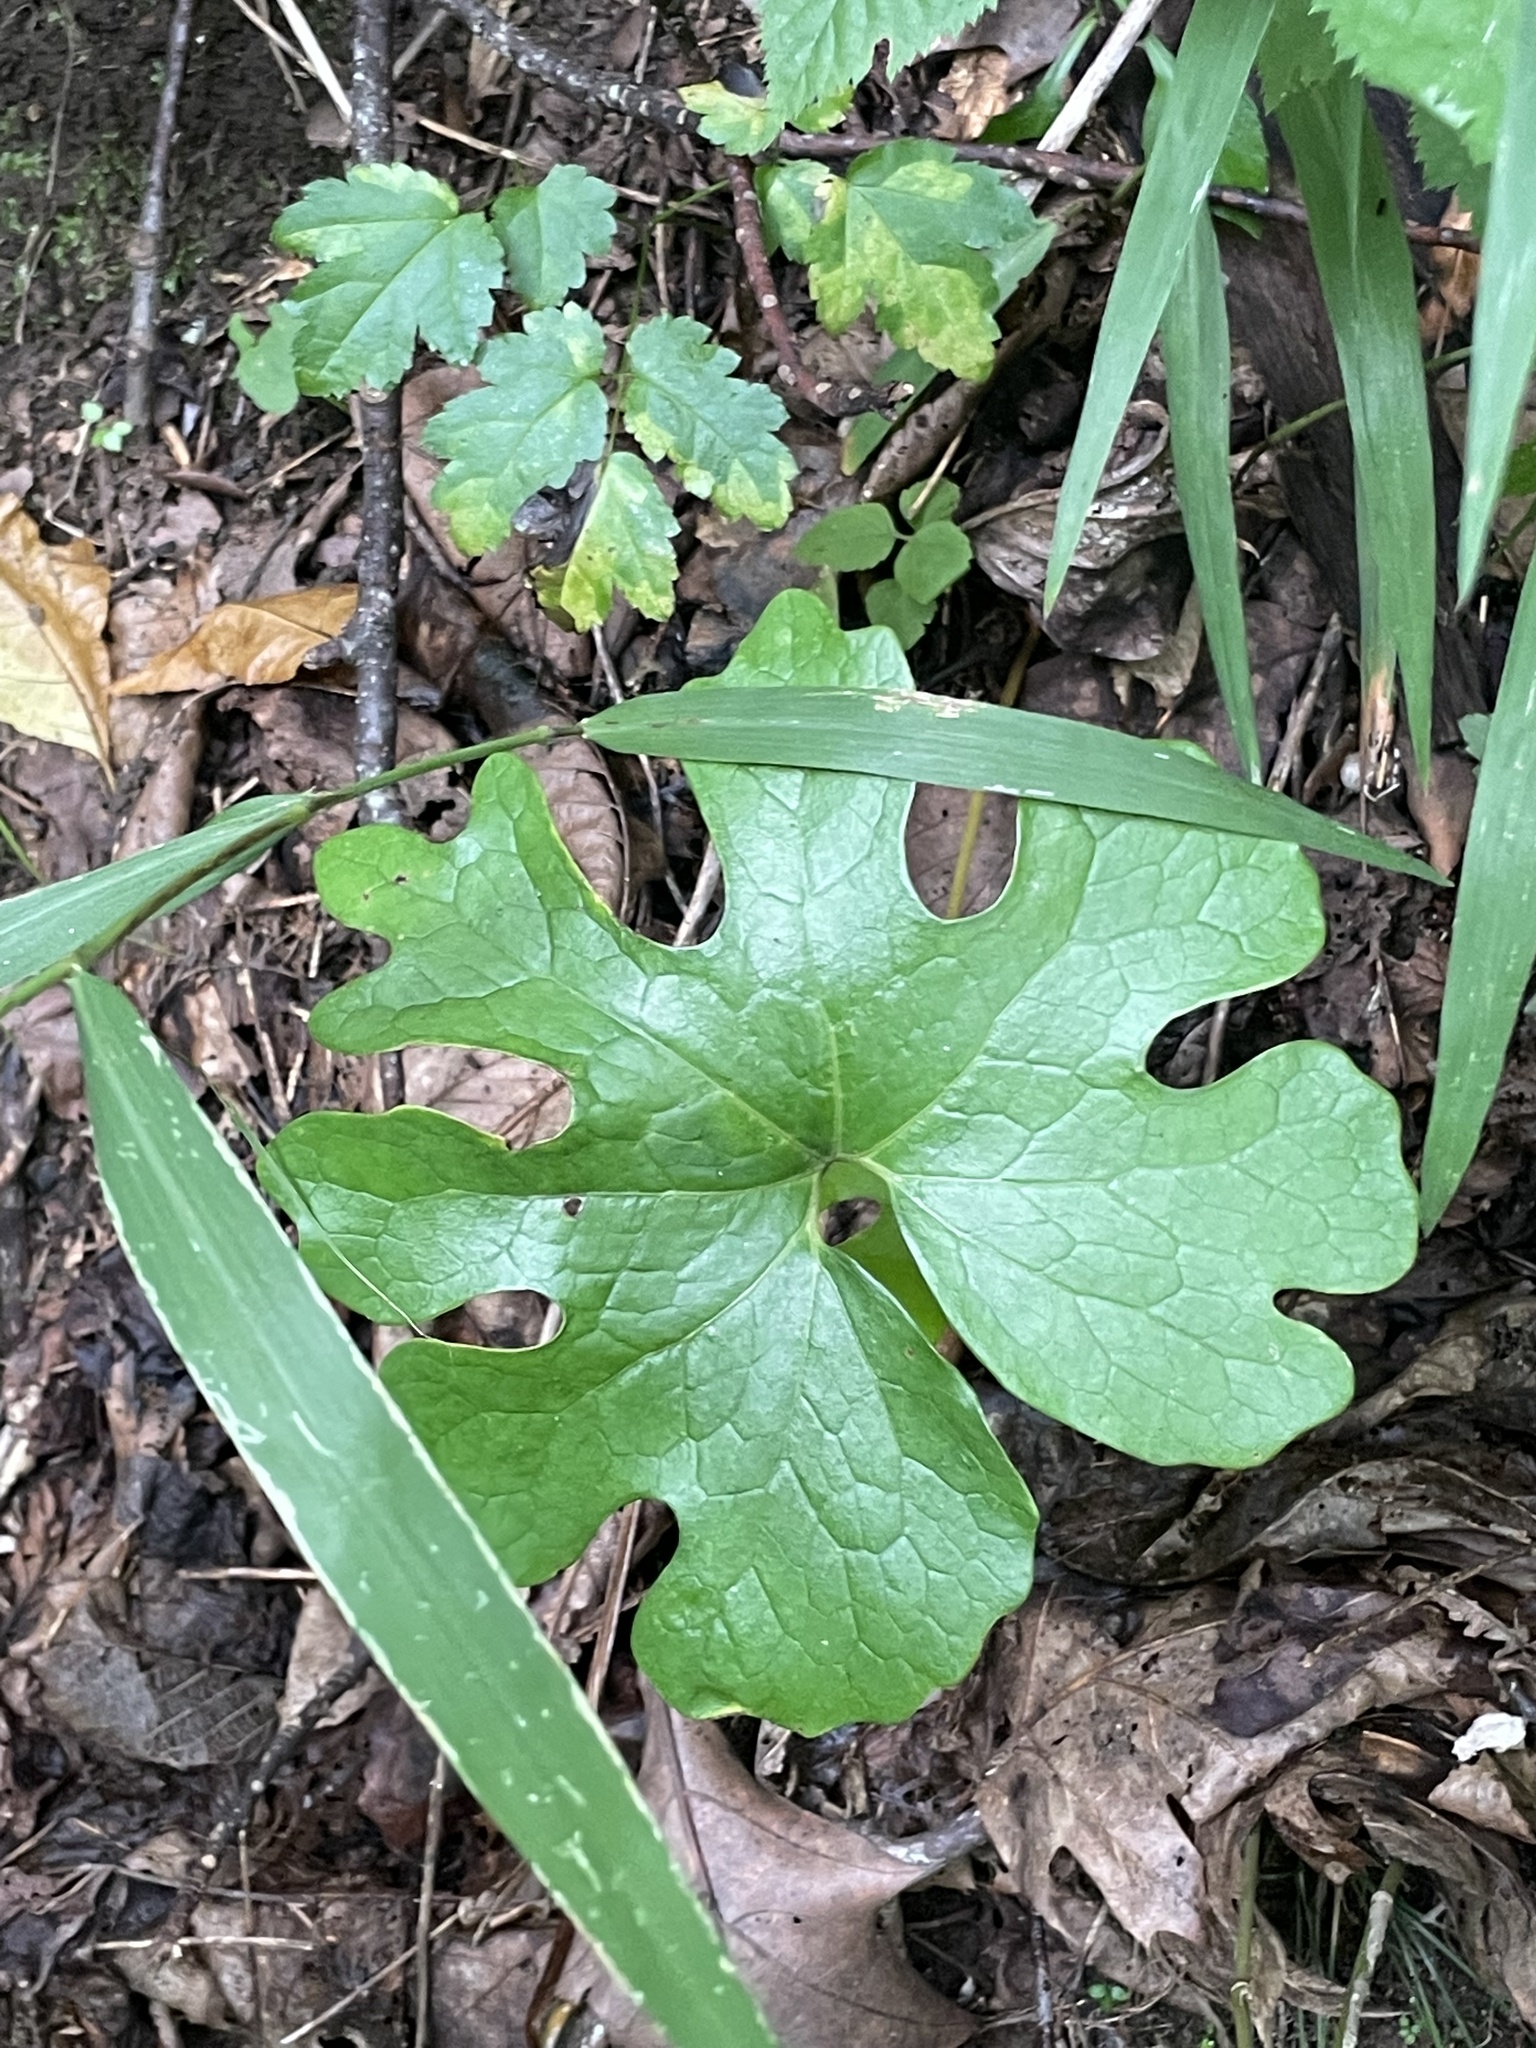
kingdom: Plantae
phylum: Tracheophyta
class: Magnoliopsida
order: Ranunculales
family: Papaveraceae
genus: Sanguinaria
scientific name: Sanguinaria canadensis
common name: Bloodroot
